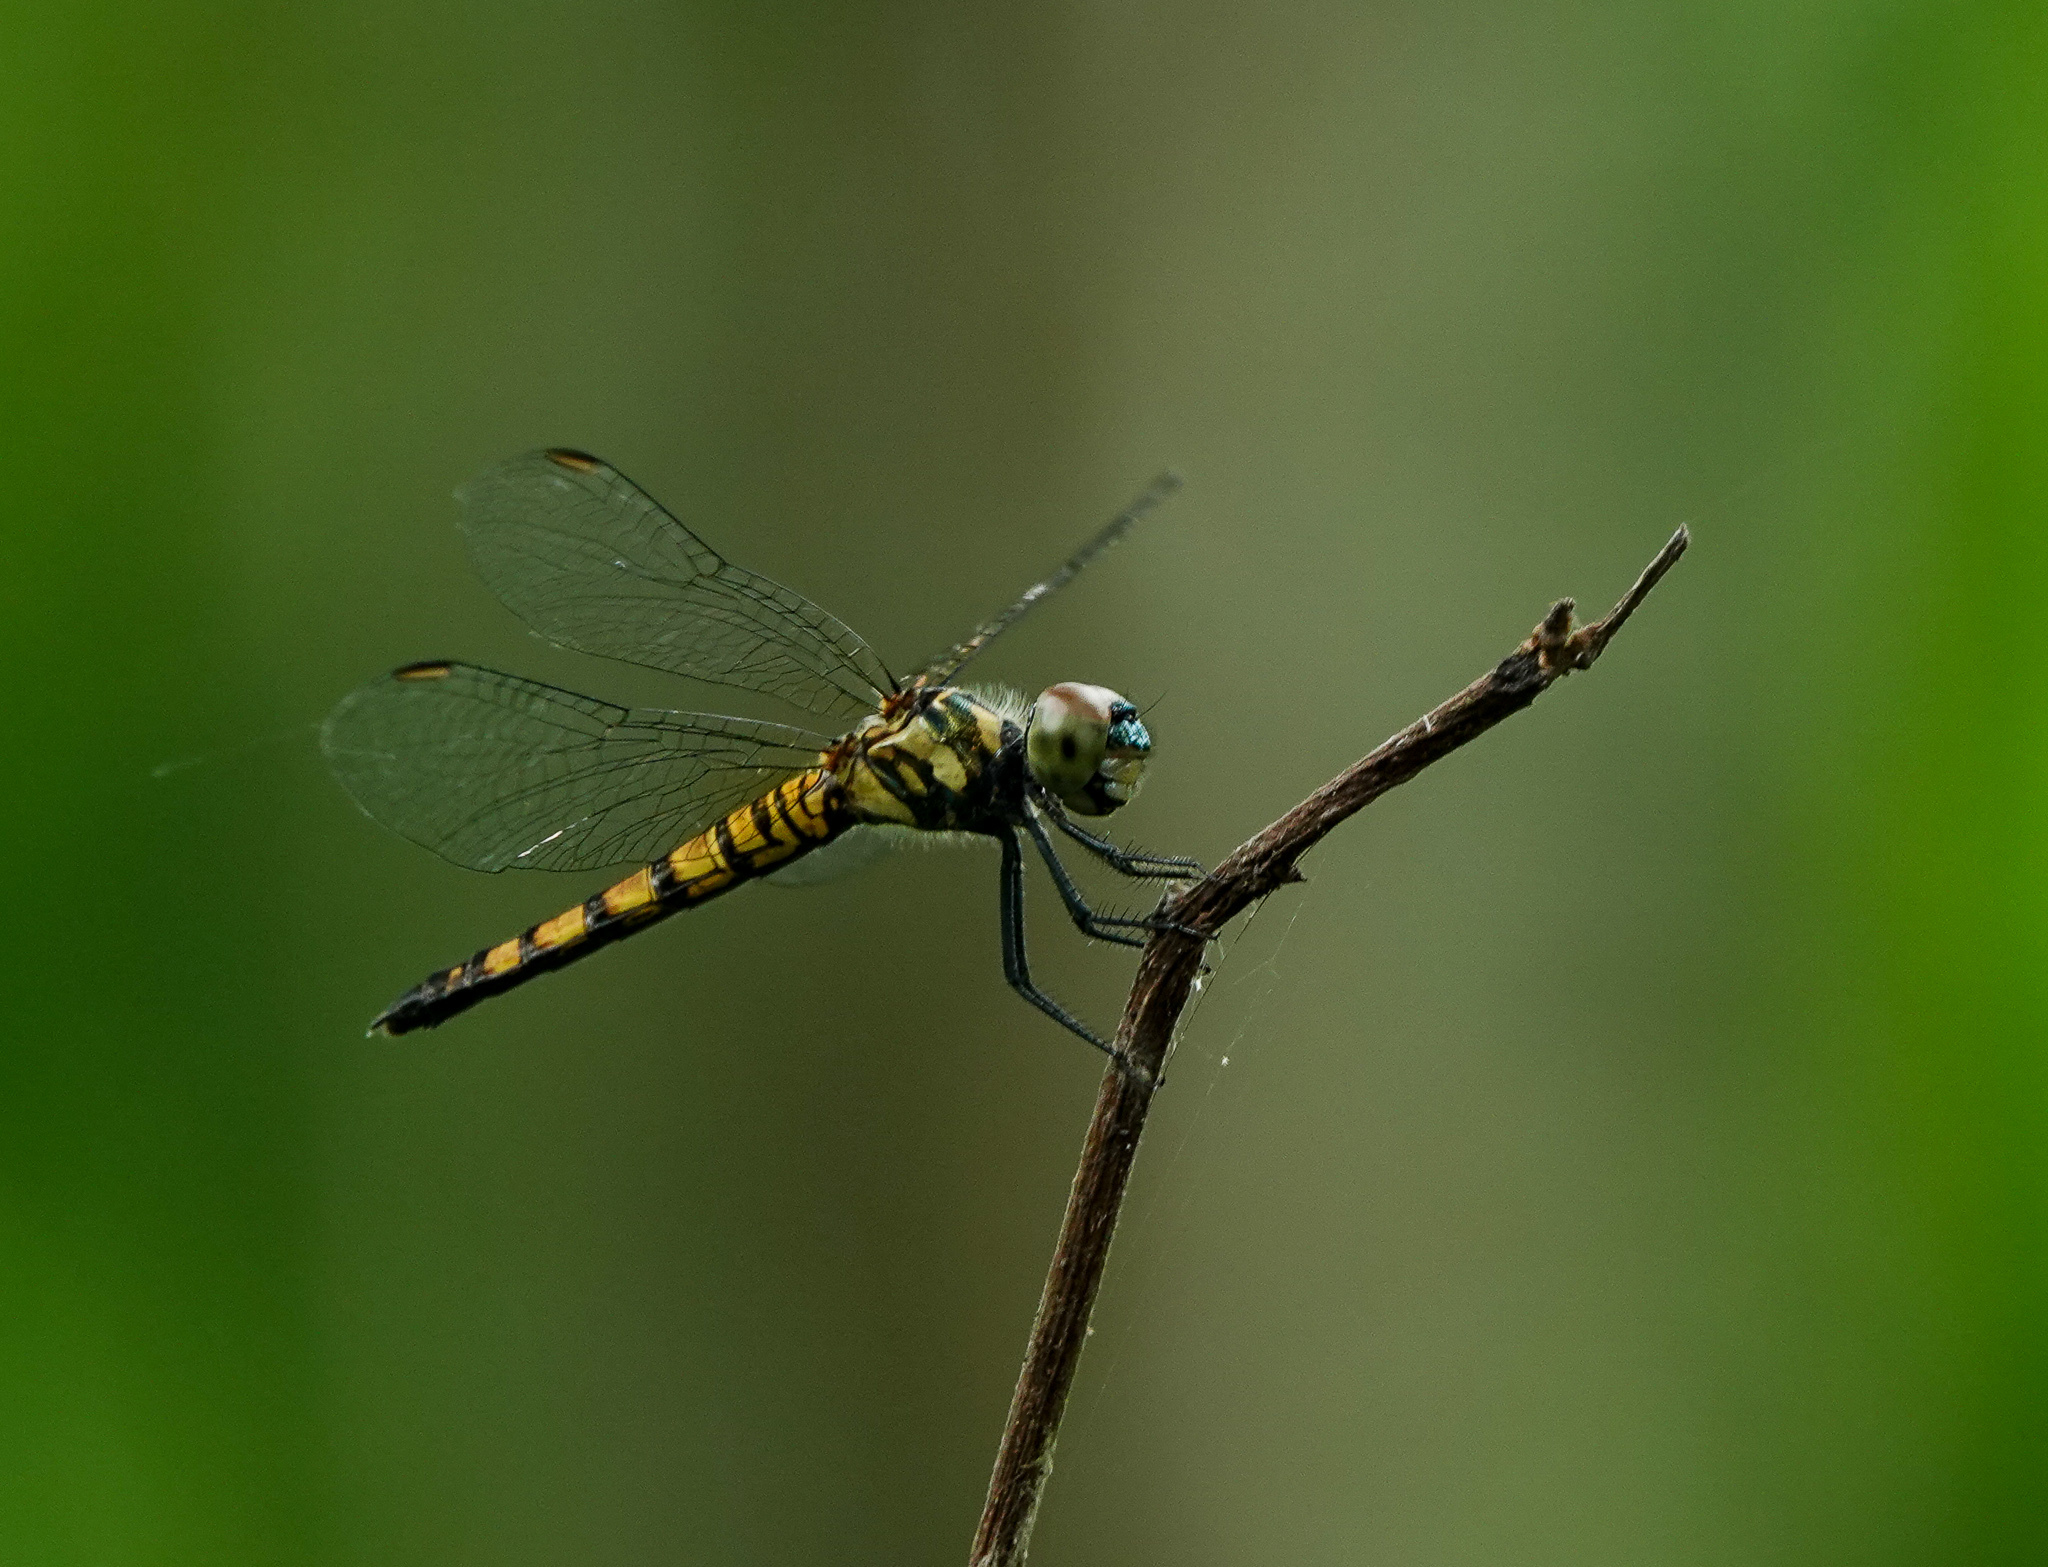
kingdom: Animalia
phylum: Arthropoda
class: Insecta
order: Odonata
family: Libellulidae
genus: Brachydiplax
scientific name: Brachydiplax chalybea
